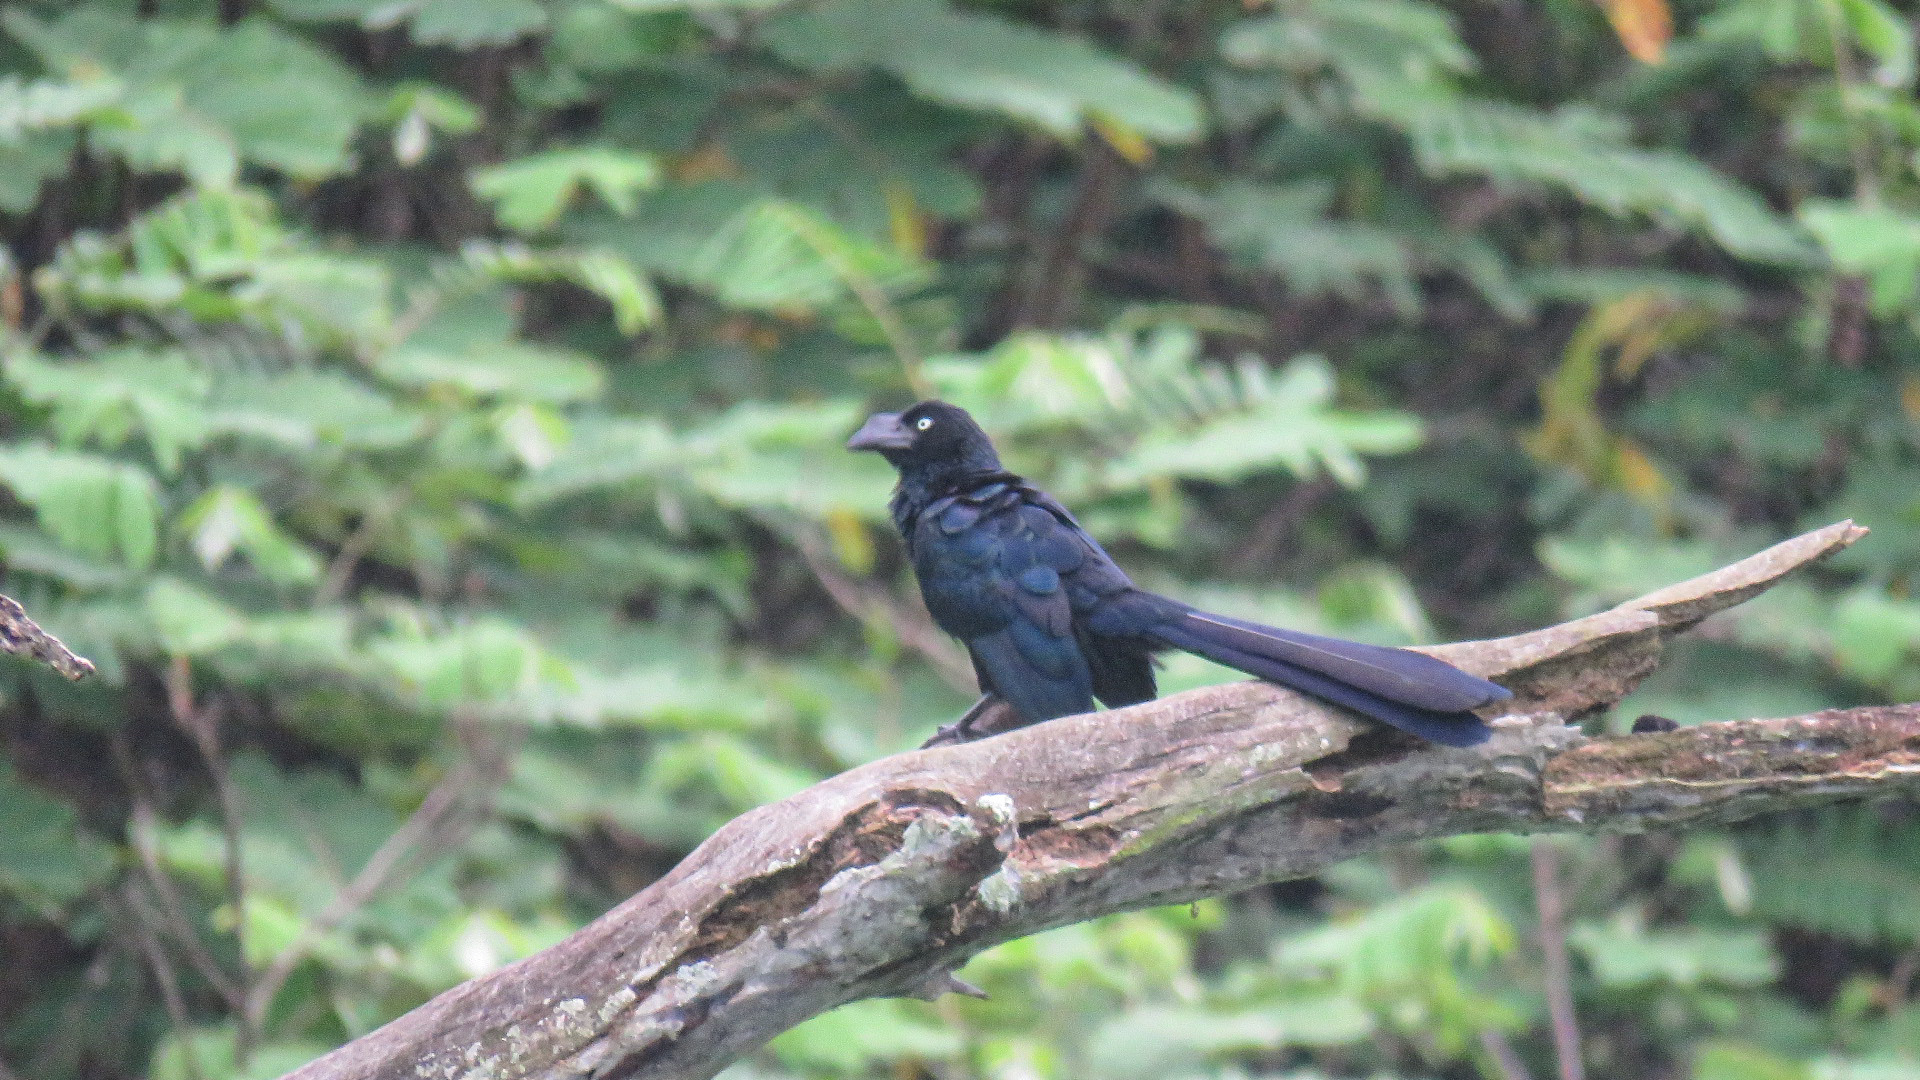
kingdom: Animalia
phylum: Chordata
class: Aves
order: Cuculiformes
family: Cuculidae
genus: Crotophaga
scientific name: Crotophaga major
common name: Greater ani
